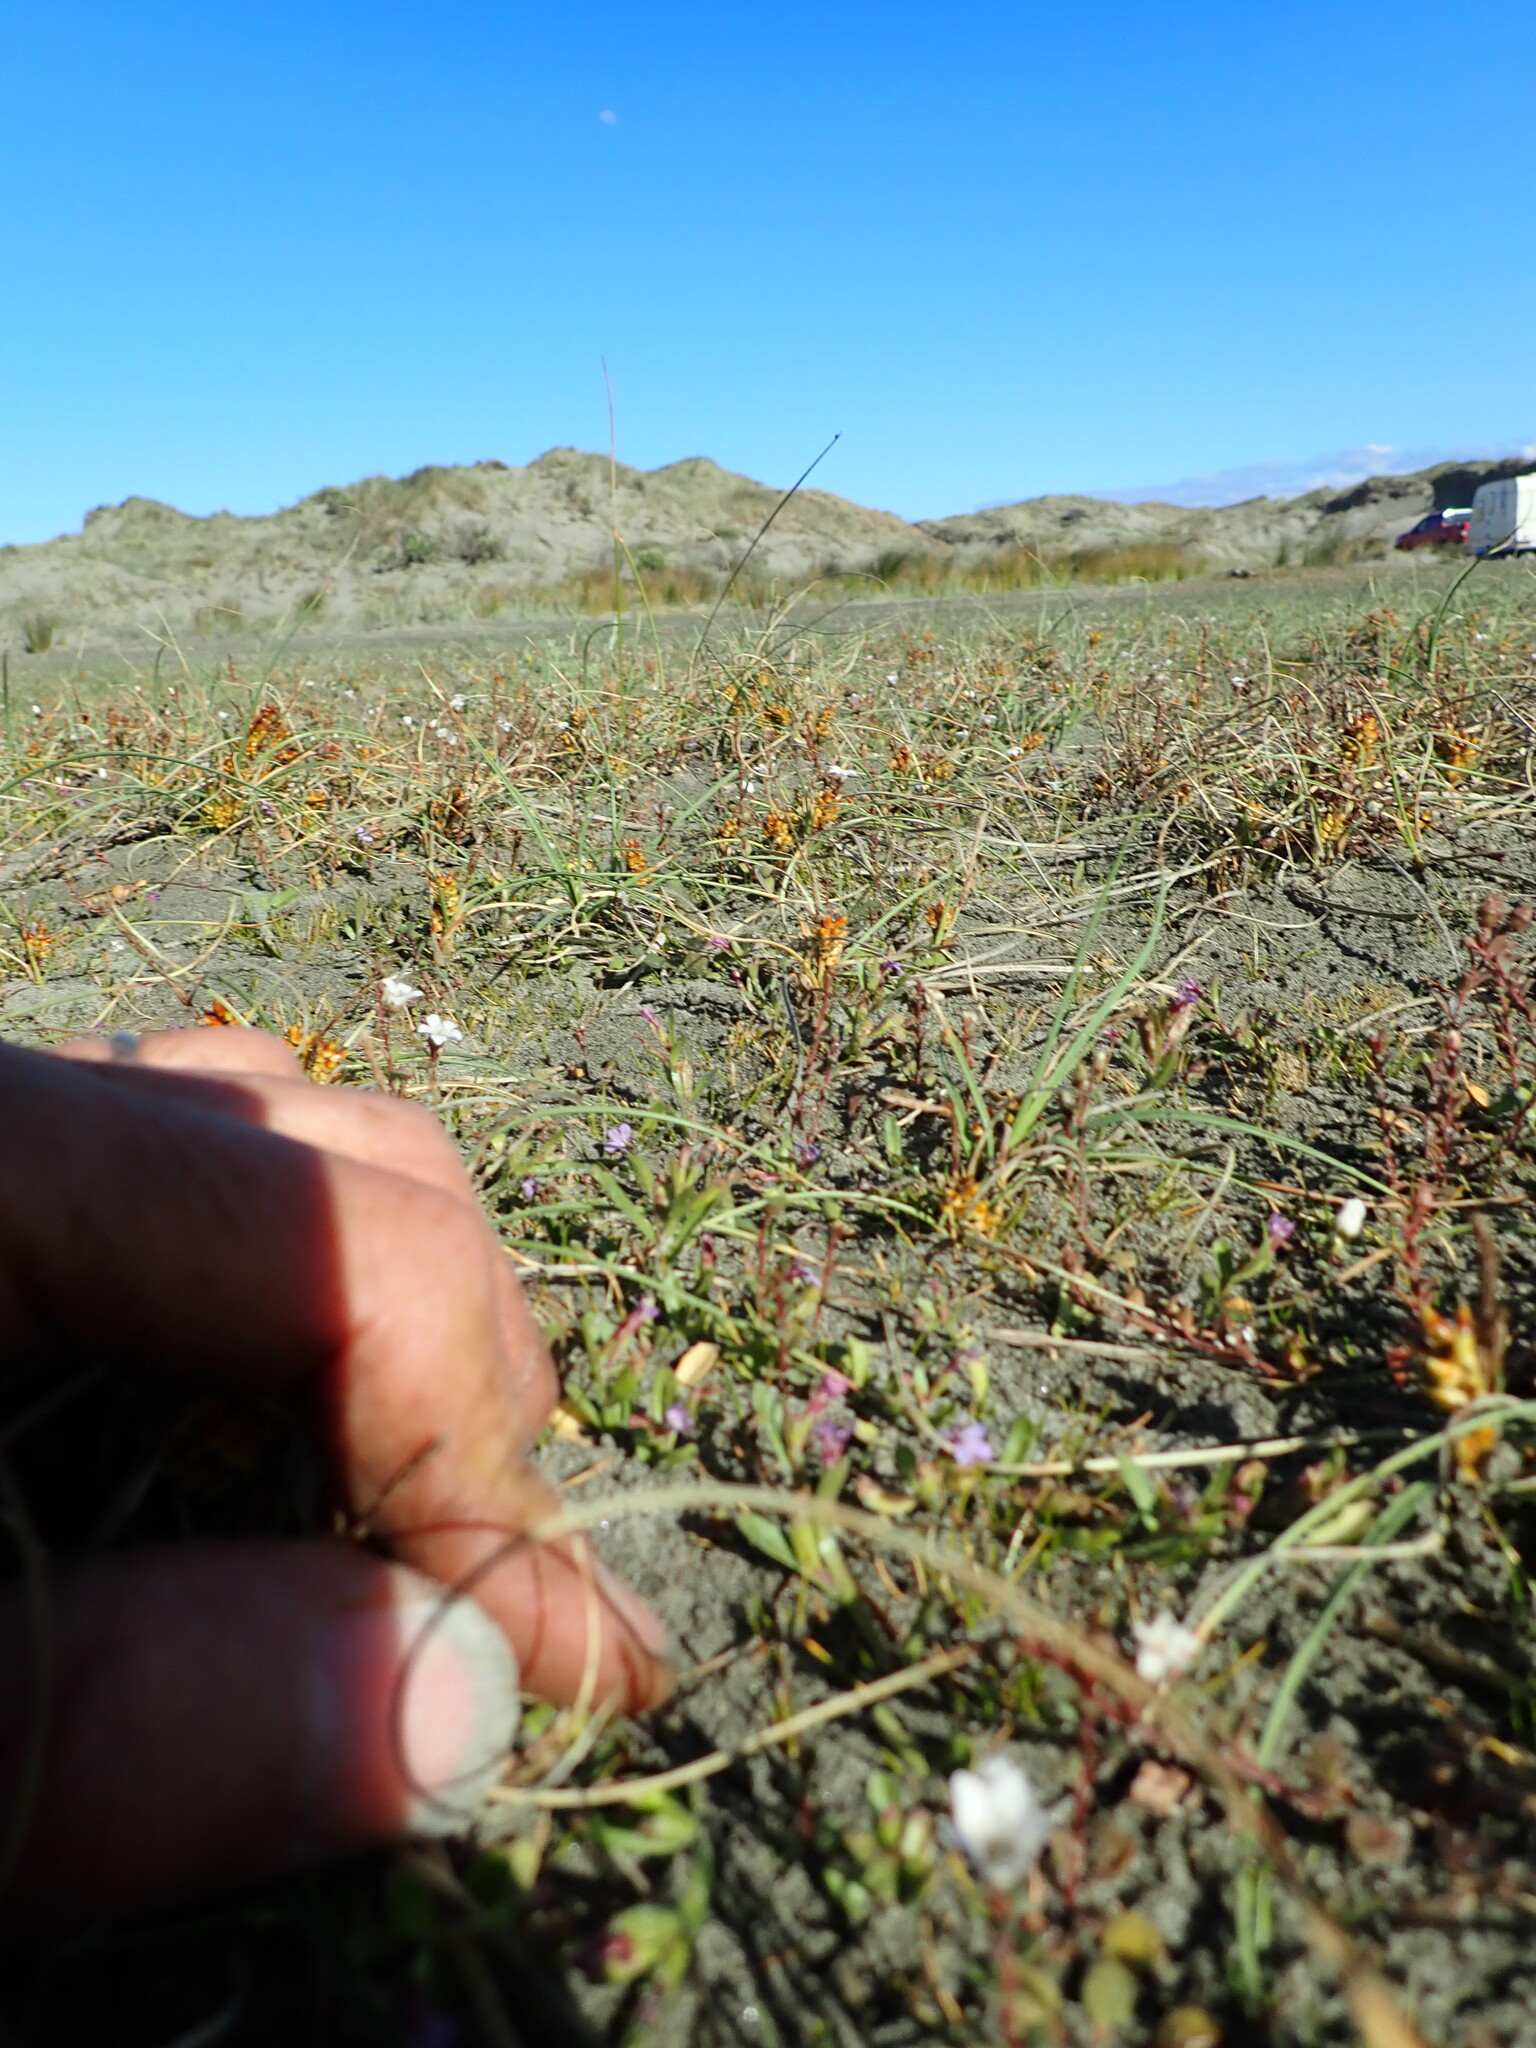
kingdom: Plantae
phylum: Tracheophyta
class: Magnoliopsida
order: Asterales
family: Campanulaceae
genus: Lobelia
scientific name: Lobelia anceps
